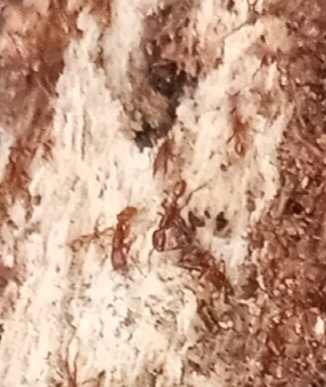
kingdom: Animalia
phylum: Arthropoda
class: Insecta
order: Hymenoptera
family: Formicidae
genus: Neivamyrmex
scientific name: Neivamyrmex
